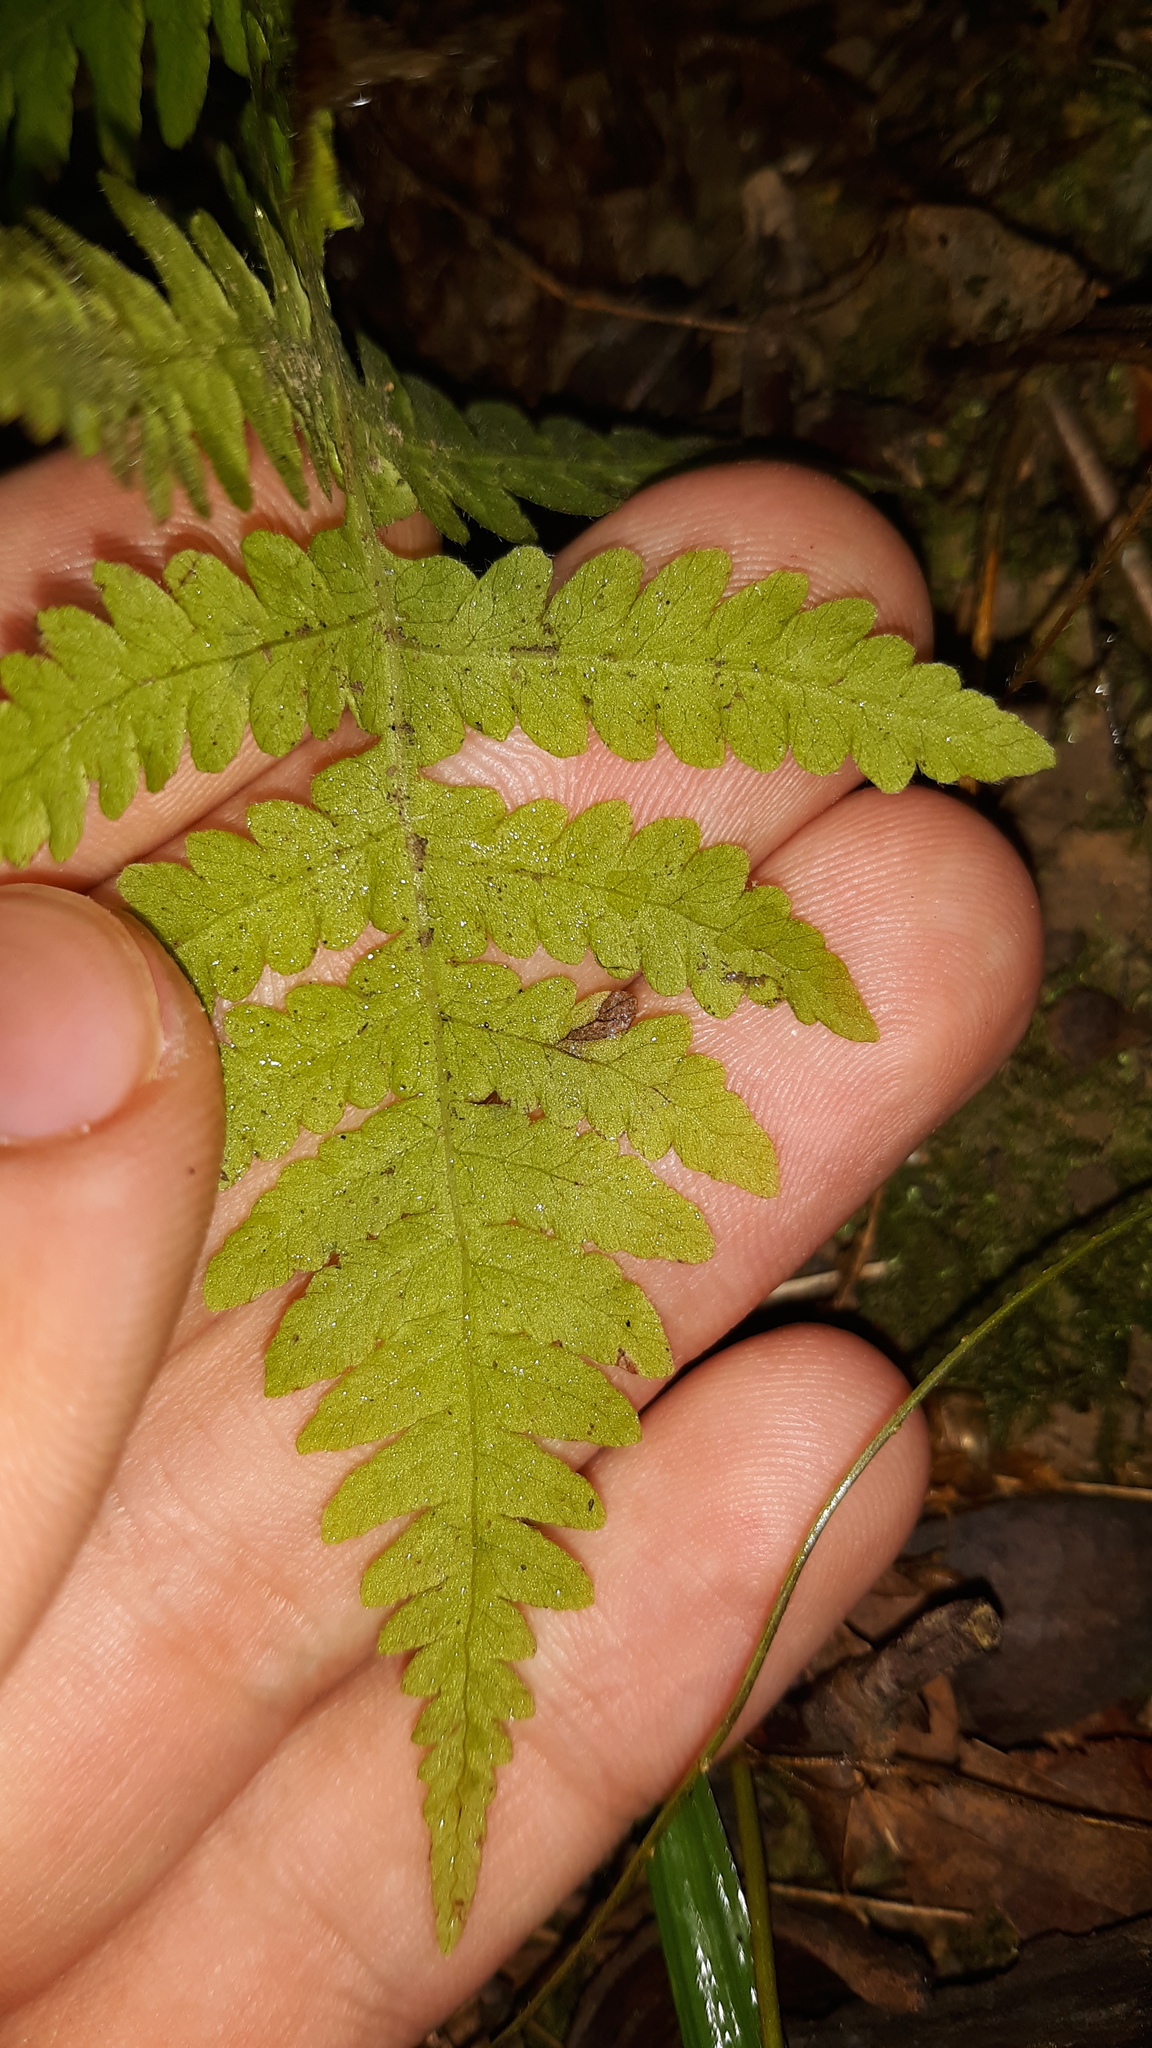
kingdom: Plantae
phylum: Tracheophyta
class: Polypodiopsida
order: Polypodiales
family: Thelypteridaceae
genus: Phegopteris
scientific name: Phegopteris hexagonoptera
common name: Broad beech fern
